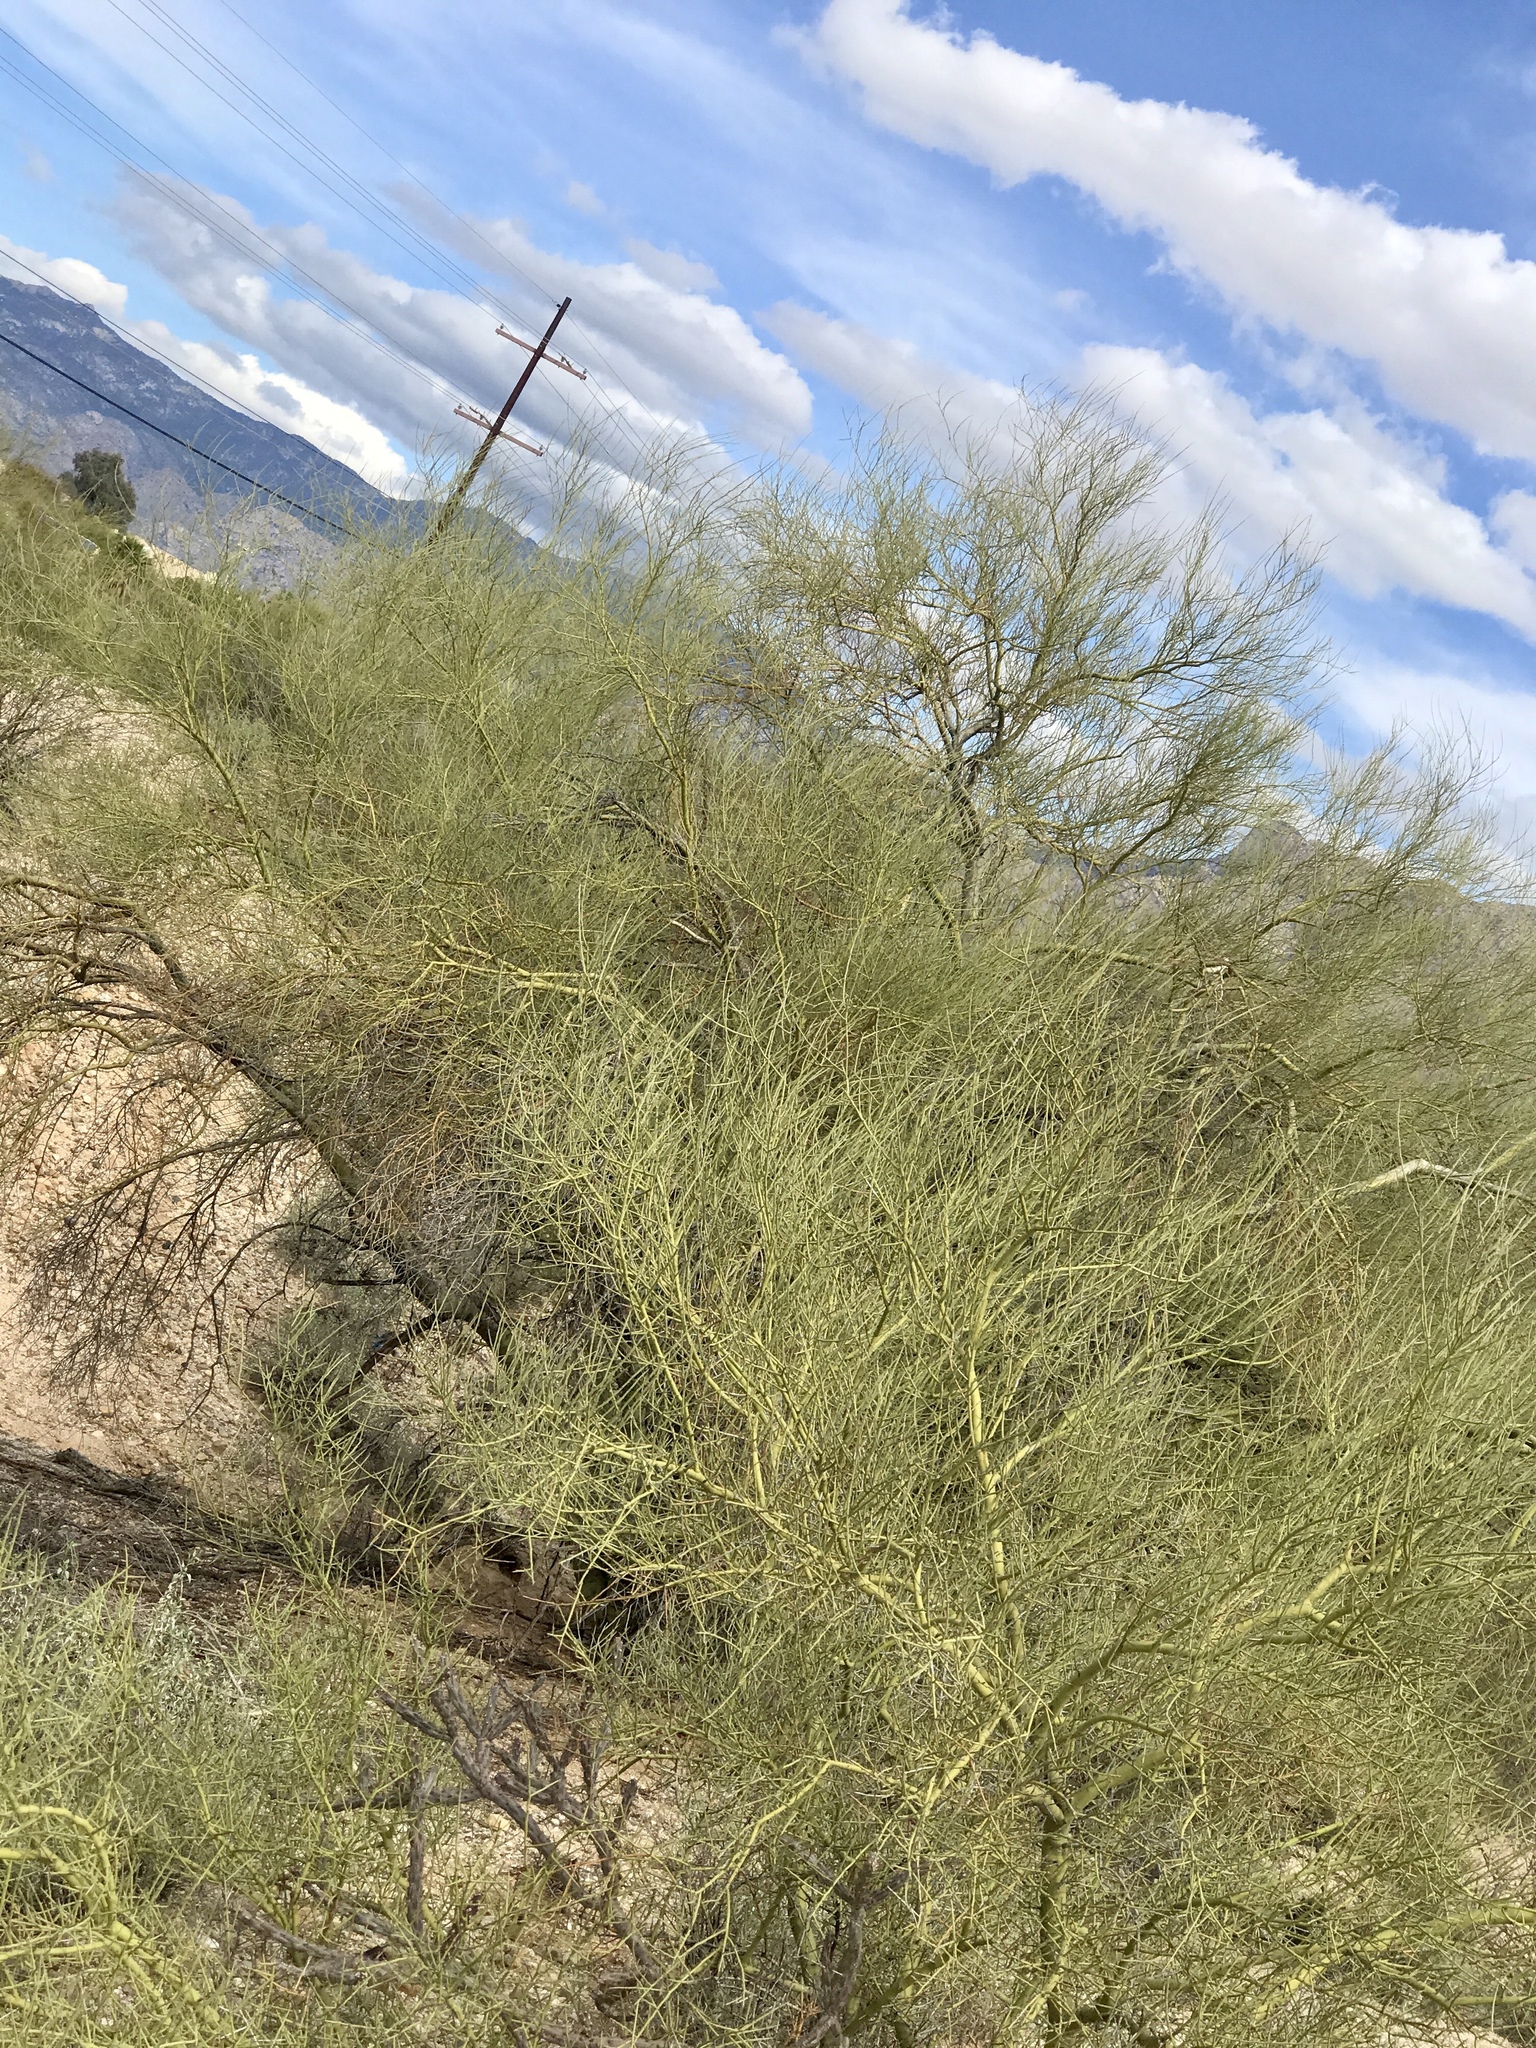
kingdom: Plantae
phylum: Tracheophyta
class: Magnoliopsida
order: Fabales
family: Fabaceae
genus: Parkinsonia
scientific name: Parkinsonia microphylla
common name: Yellow paloverde
